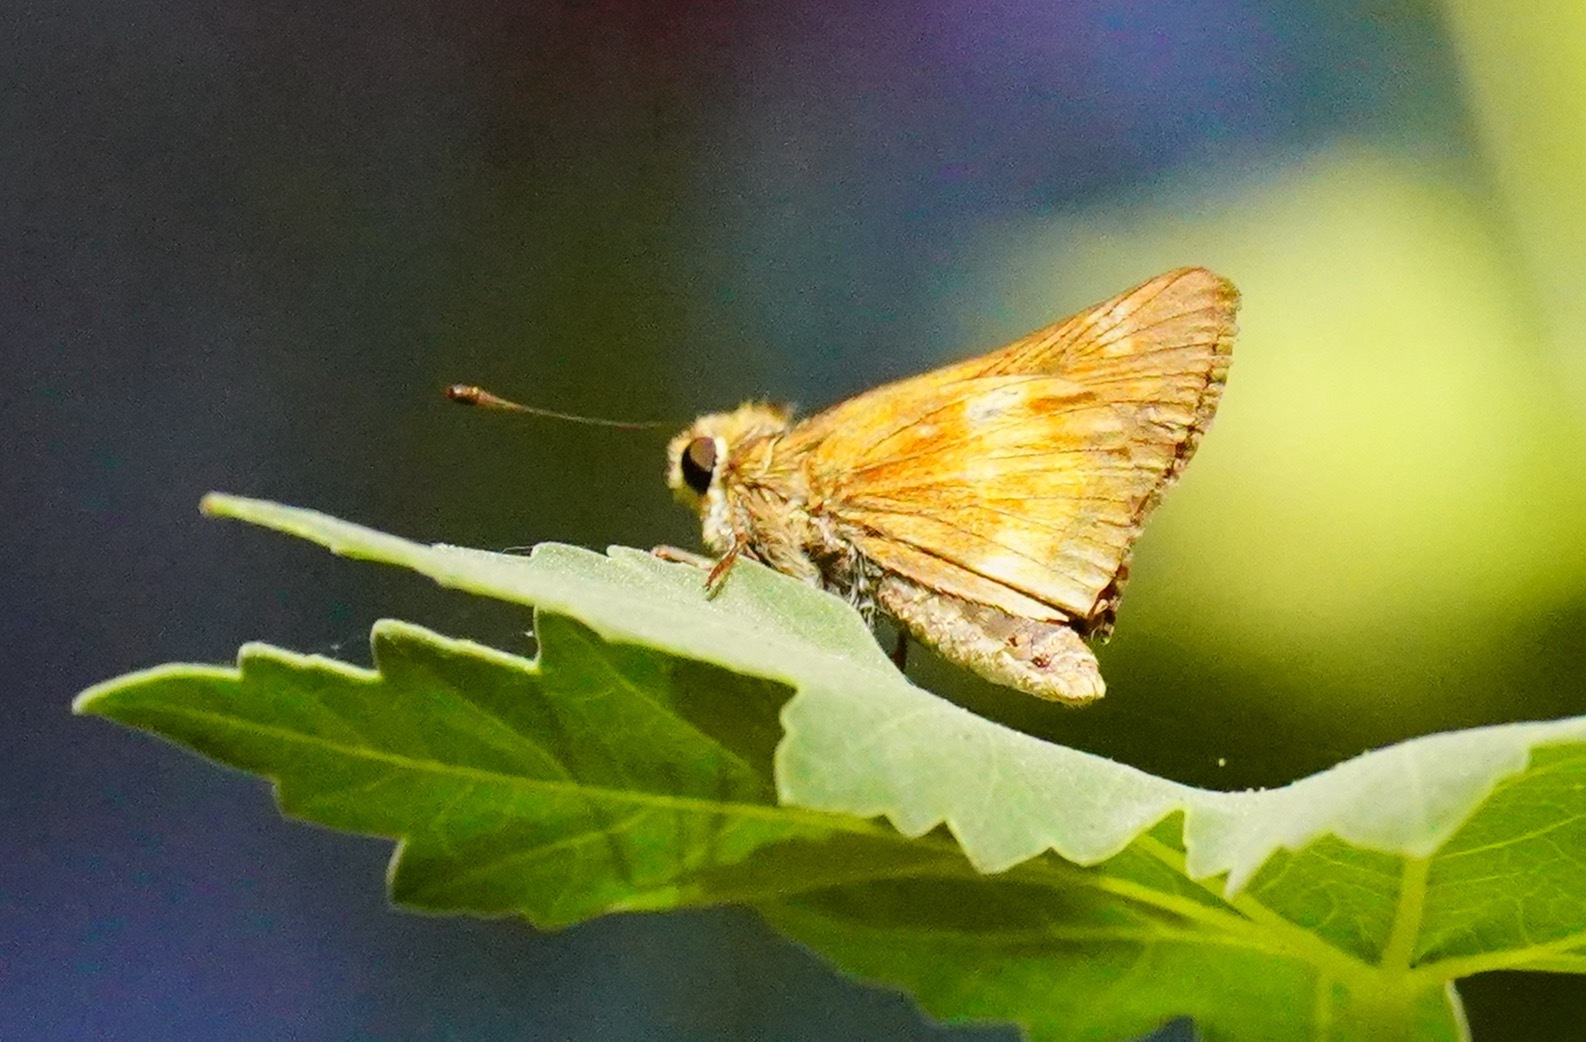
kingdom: Animalia
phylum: Arthropoda
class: Insecta
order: Lepidoptera
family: Hesperiidae
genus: Lon
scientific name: Lon melane
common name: Umber skipper
